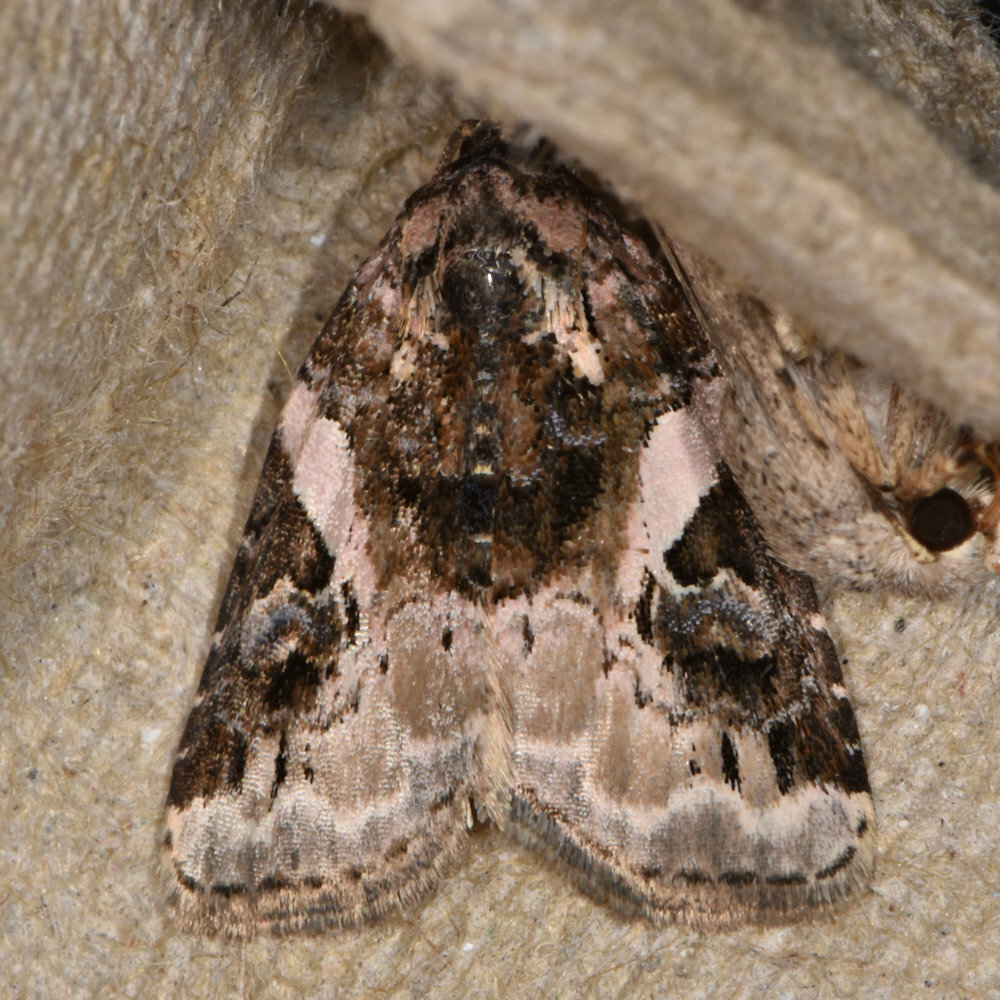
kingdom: Animalia
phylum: Arthropoda
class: Insecta
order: Lepidoptera
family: Noctuidae
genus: Pseudeustrotia
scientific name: Pseudeustrotia carneola
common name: Pink-barred lithacodia moth
